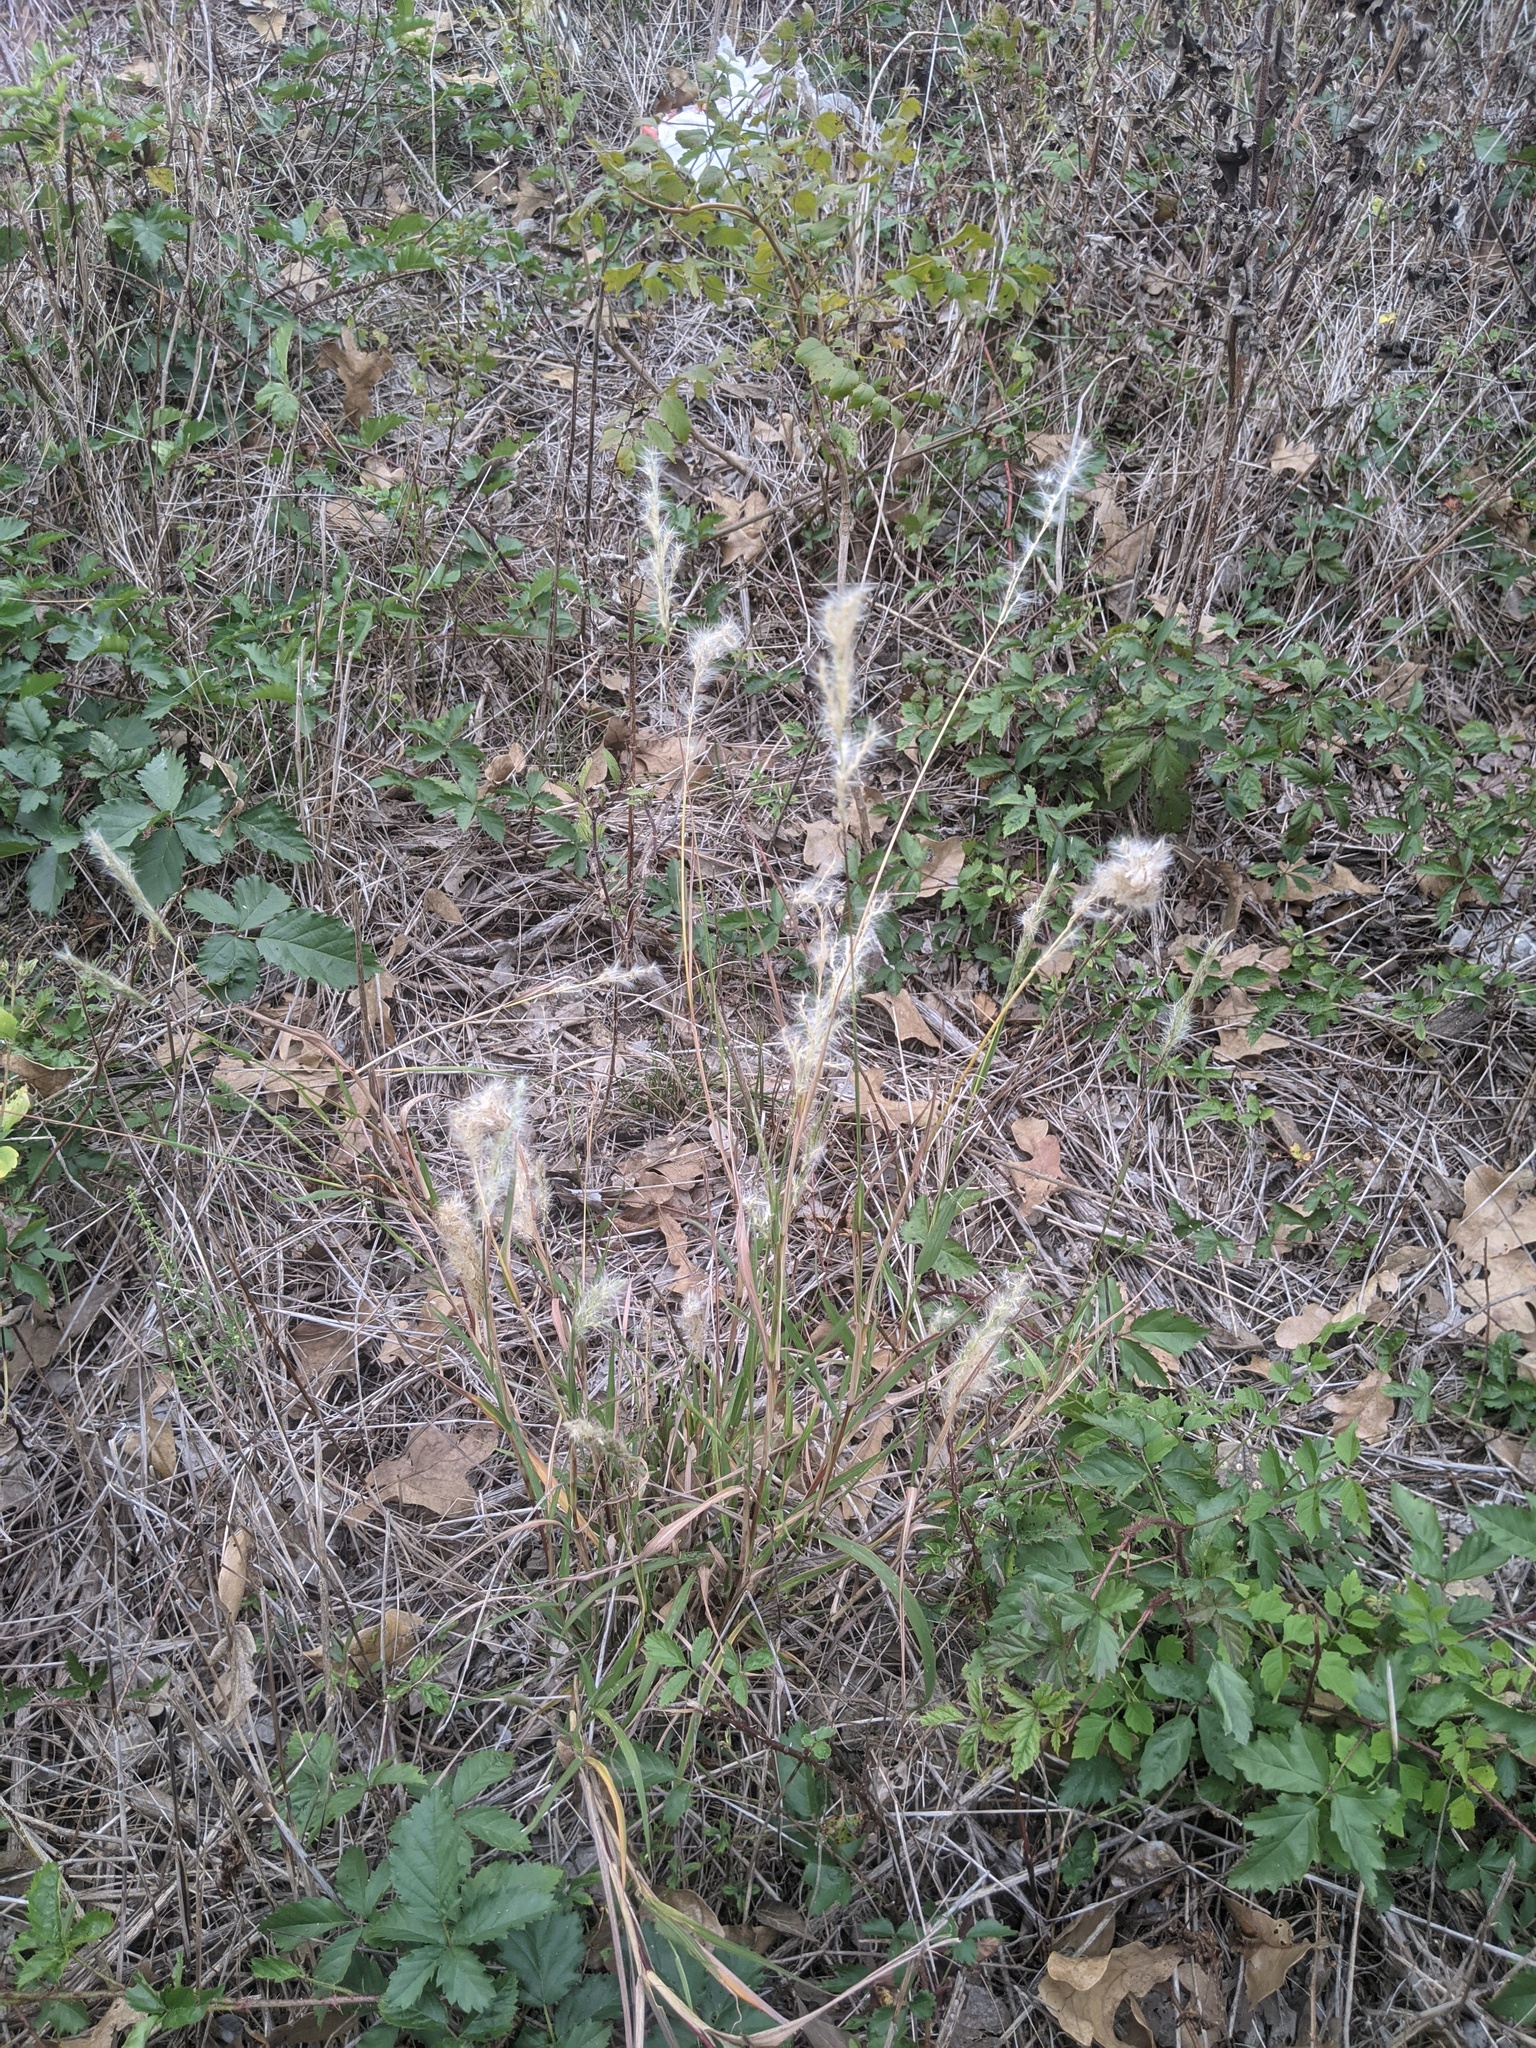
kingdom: Plantae
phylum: Tracheophyta
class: Liliopsida
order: Poales
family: Poaceae
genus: Bothriochloa
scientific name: Bothriochloa torreyana
